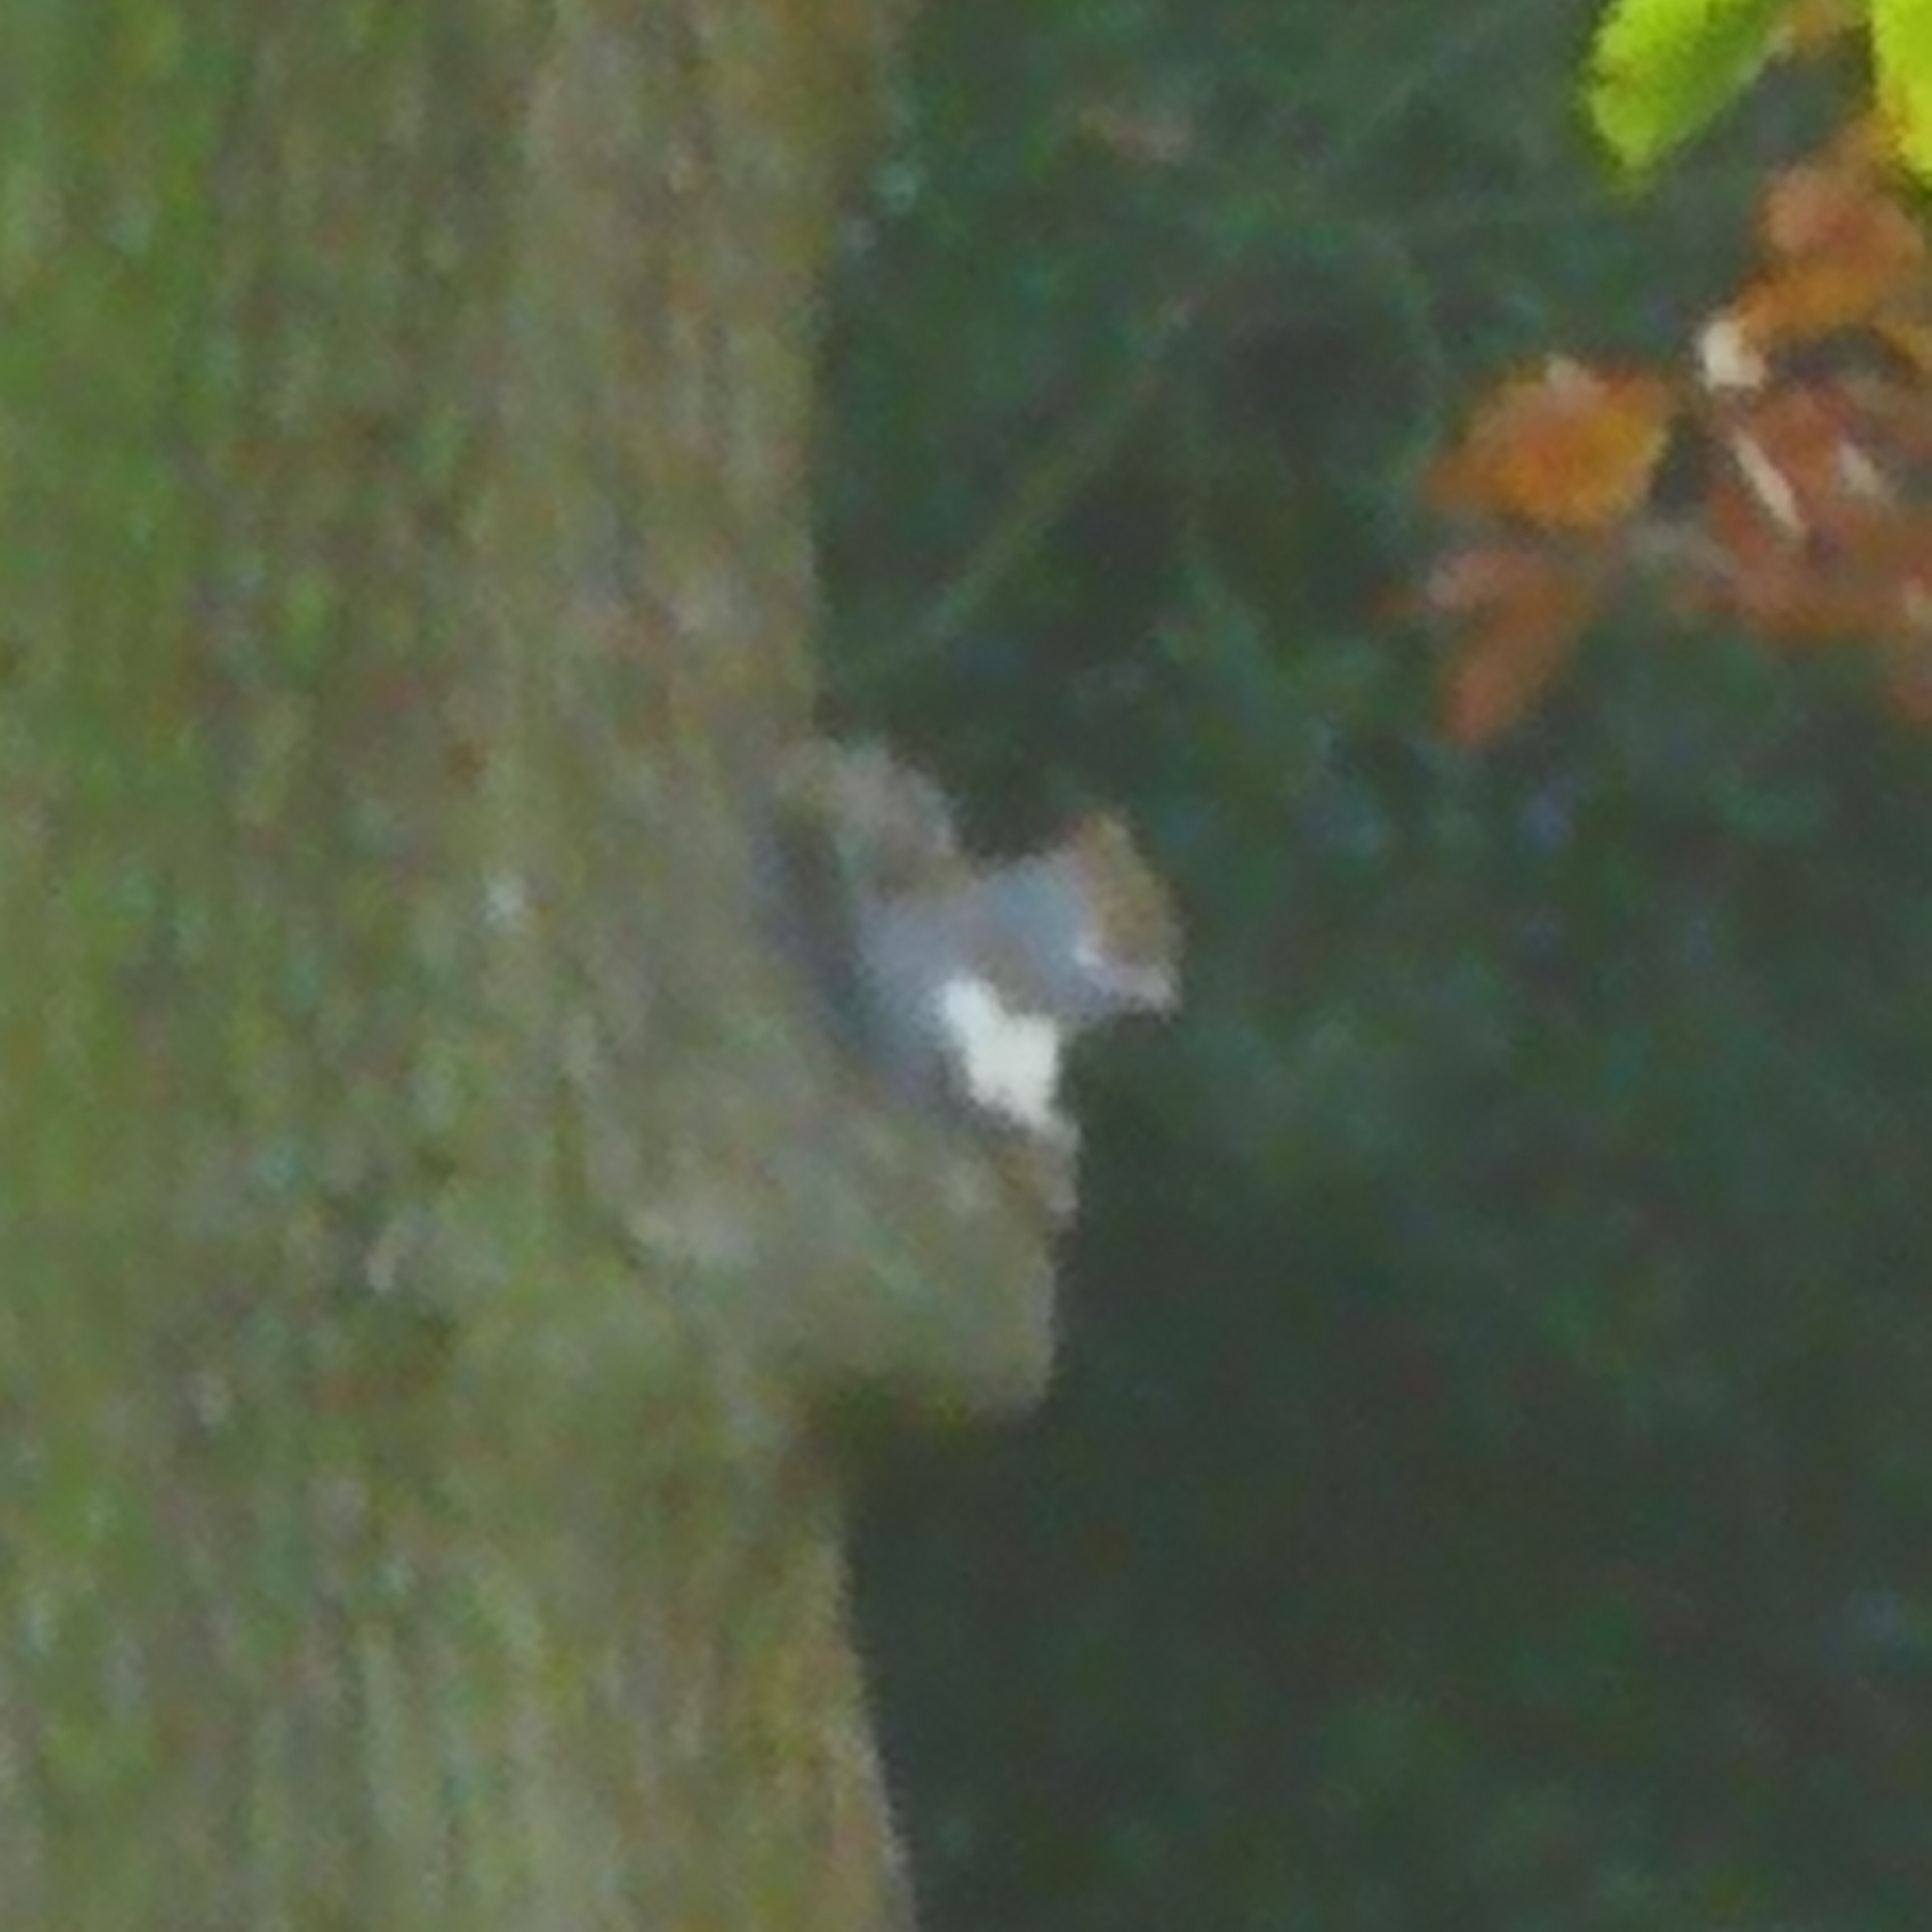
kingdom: Animalia
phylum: Chordata
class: Mammalia
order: Rodentia
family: Sciuridae
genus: Sciurus
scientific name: Sciurus carolinensis
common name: Eastern gray squirrel
